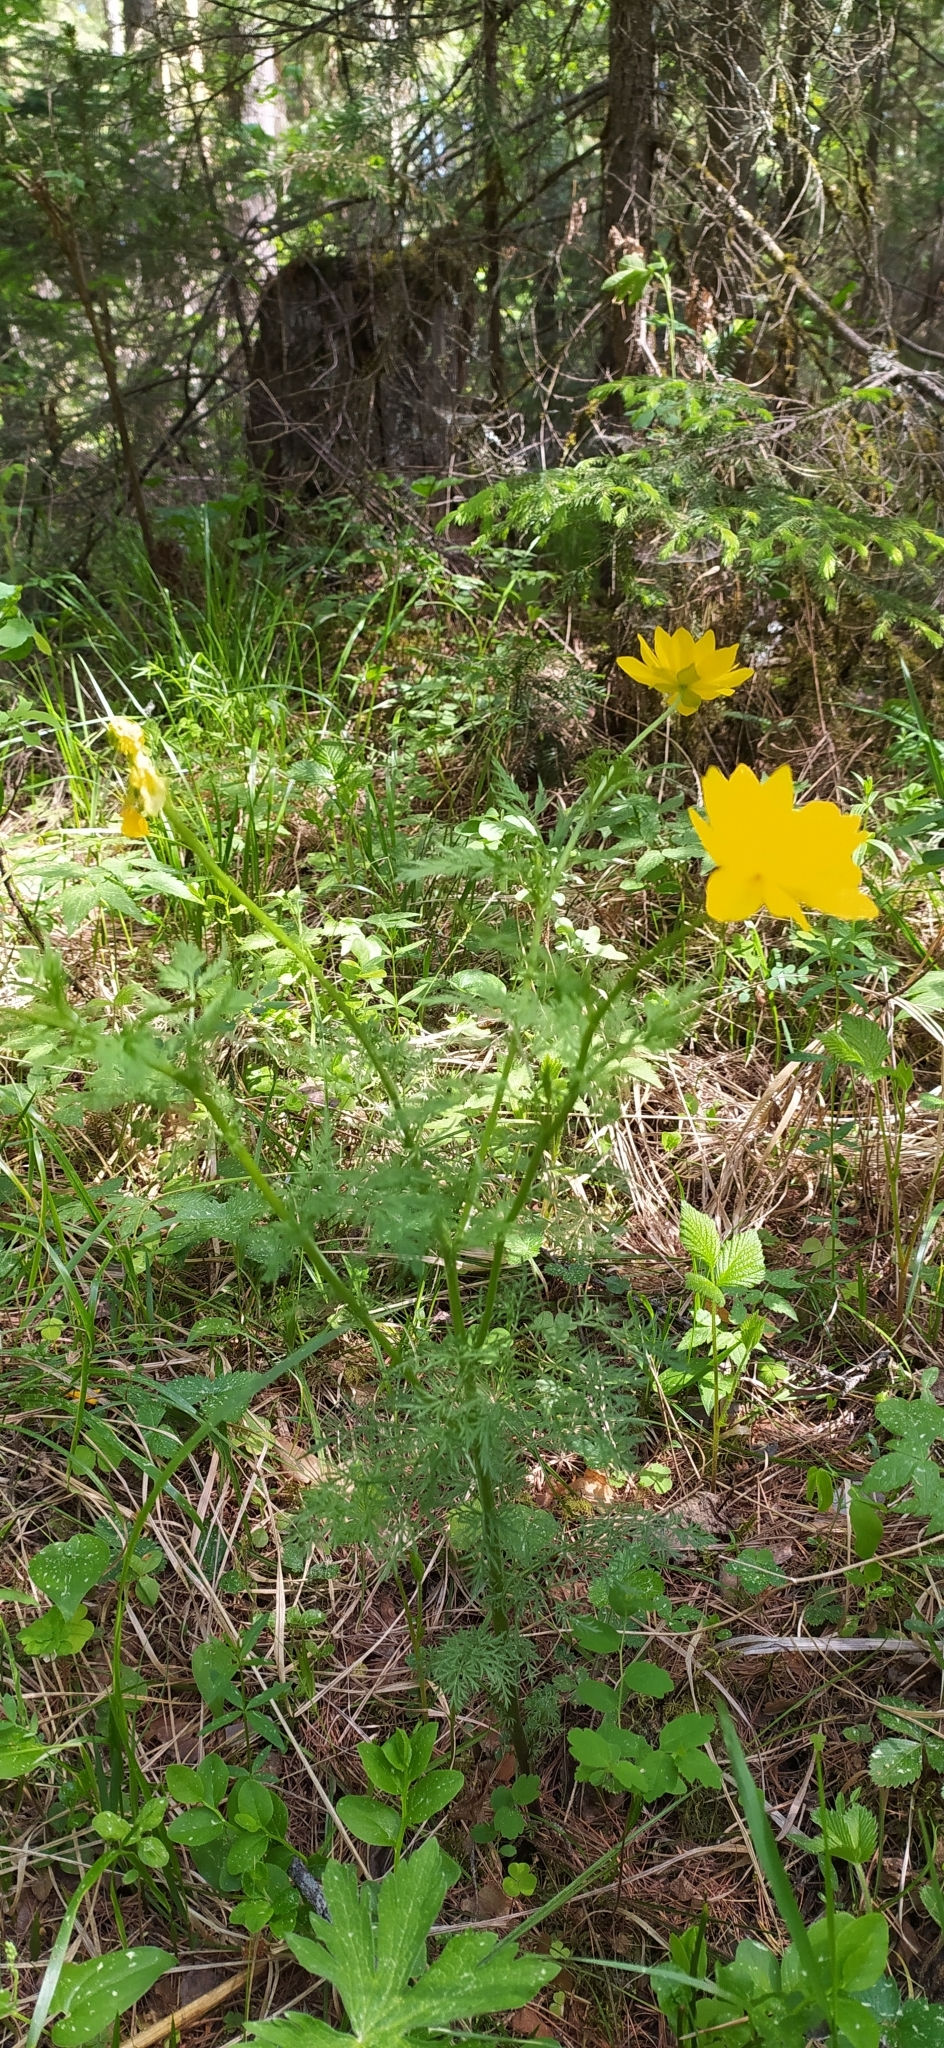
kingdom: Plantae
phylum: Tracheophyta
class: Magnoliopsida
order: Ranunculales
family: Ranunculaceae
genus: Adonis
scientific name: Adonis
